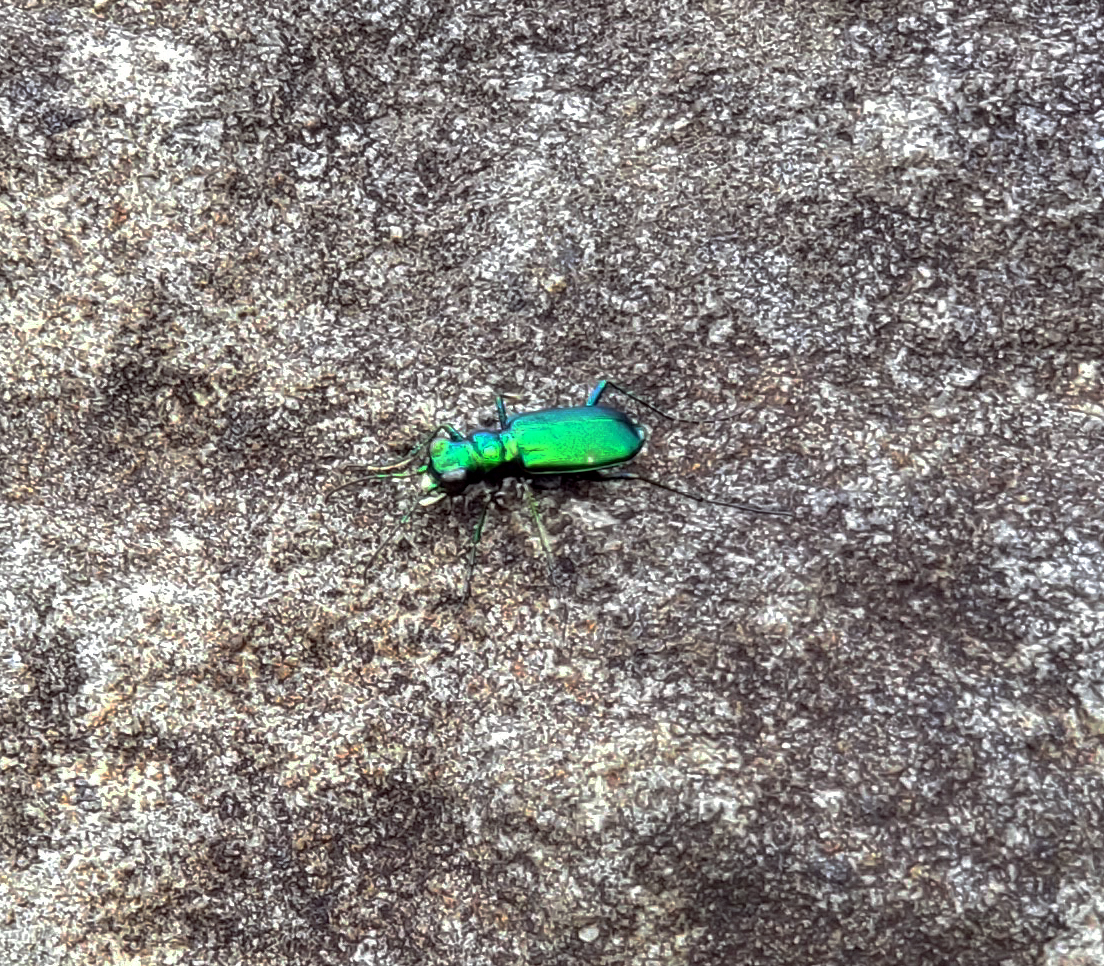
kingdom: Animalia
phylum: Arthropoda
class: Insecta
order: Coleoptera
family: Carabidae
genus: Cicindela
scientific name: Cicindela sexguttata
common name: Six-spotted tiger beetle
